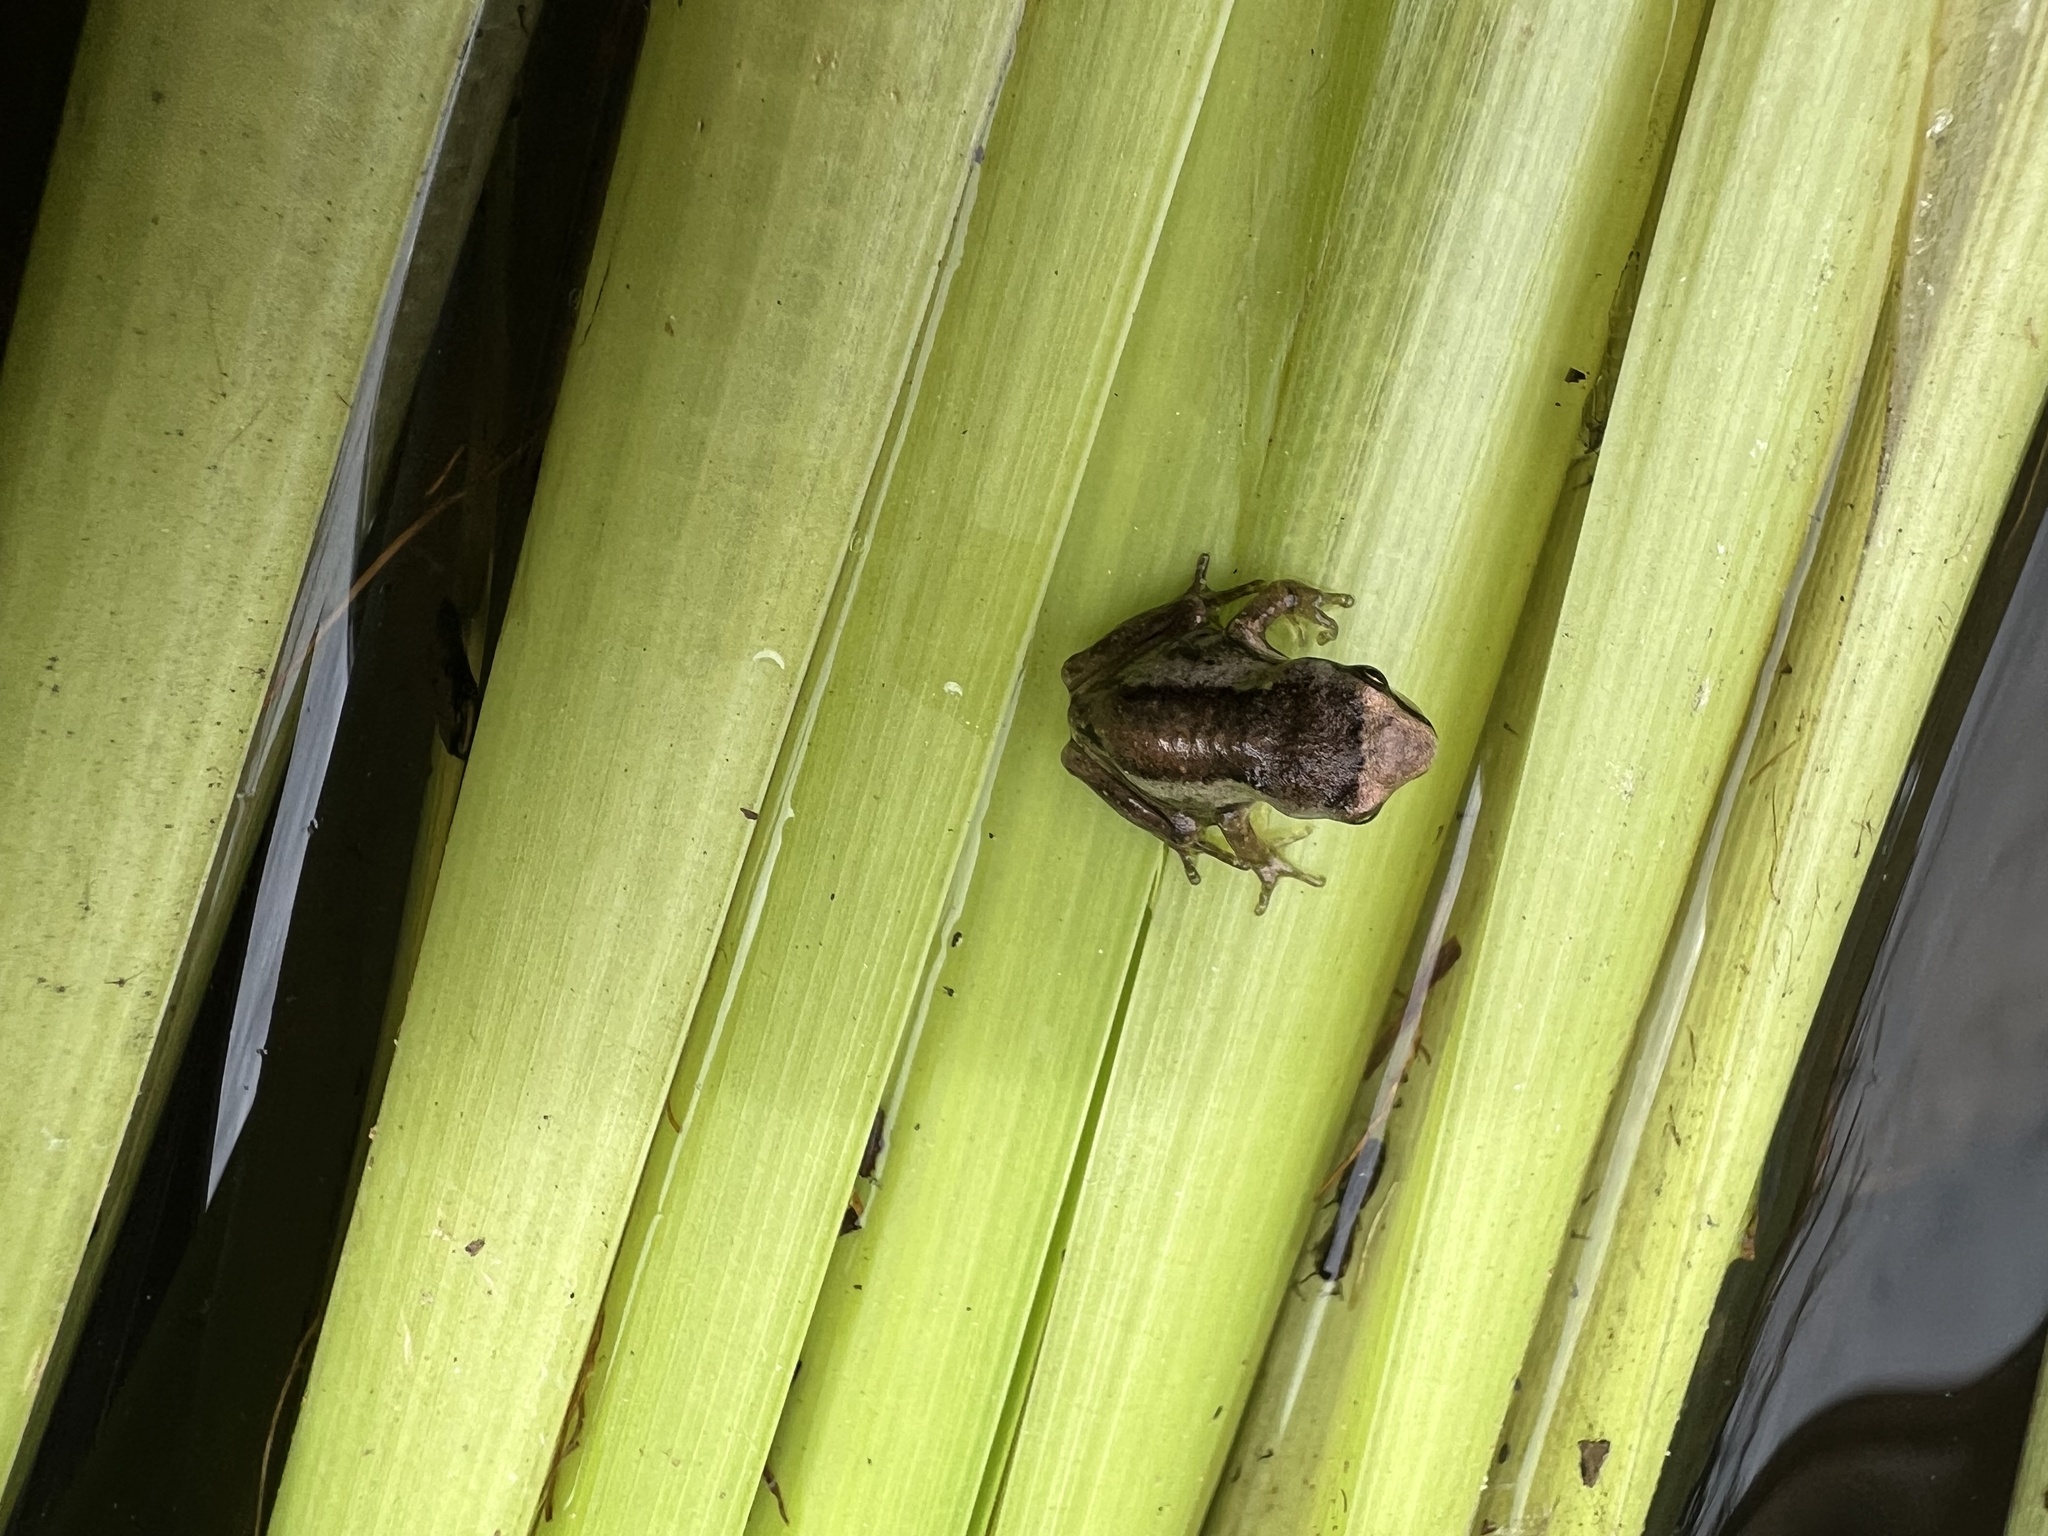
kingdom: Animalia
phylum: Chordata
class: Amphibia
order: Anura
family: Pelodryadidae
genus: Litoria
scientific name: Litoria ewingii
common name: Southern brown tree frog
